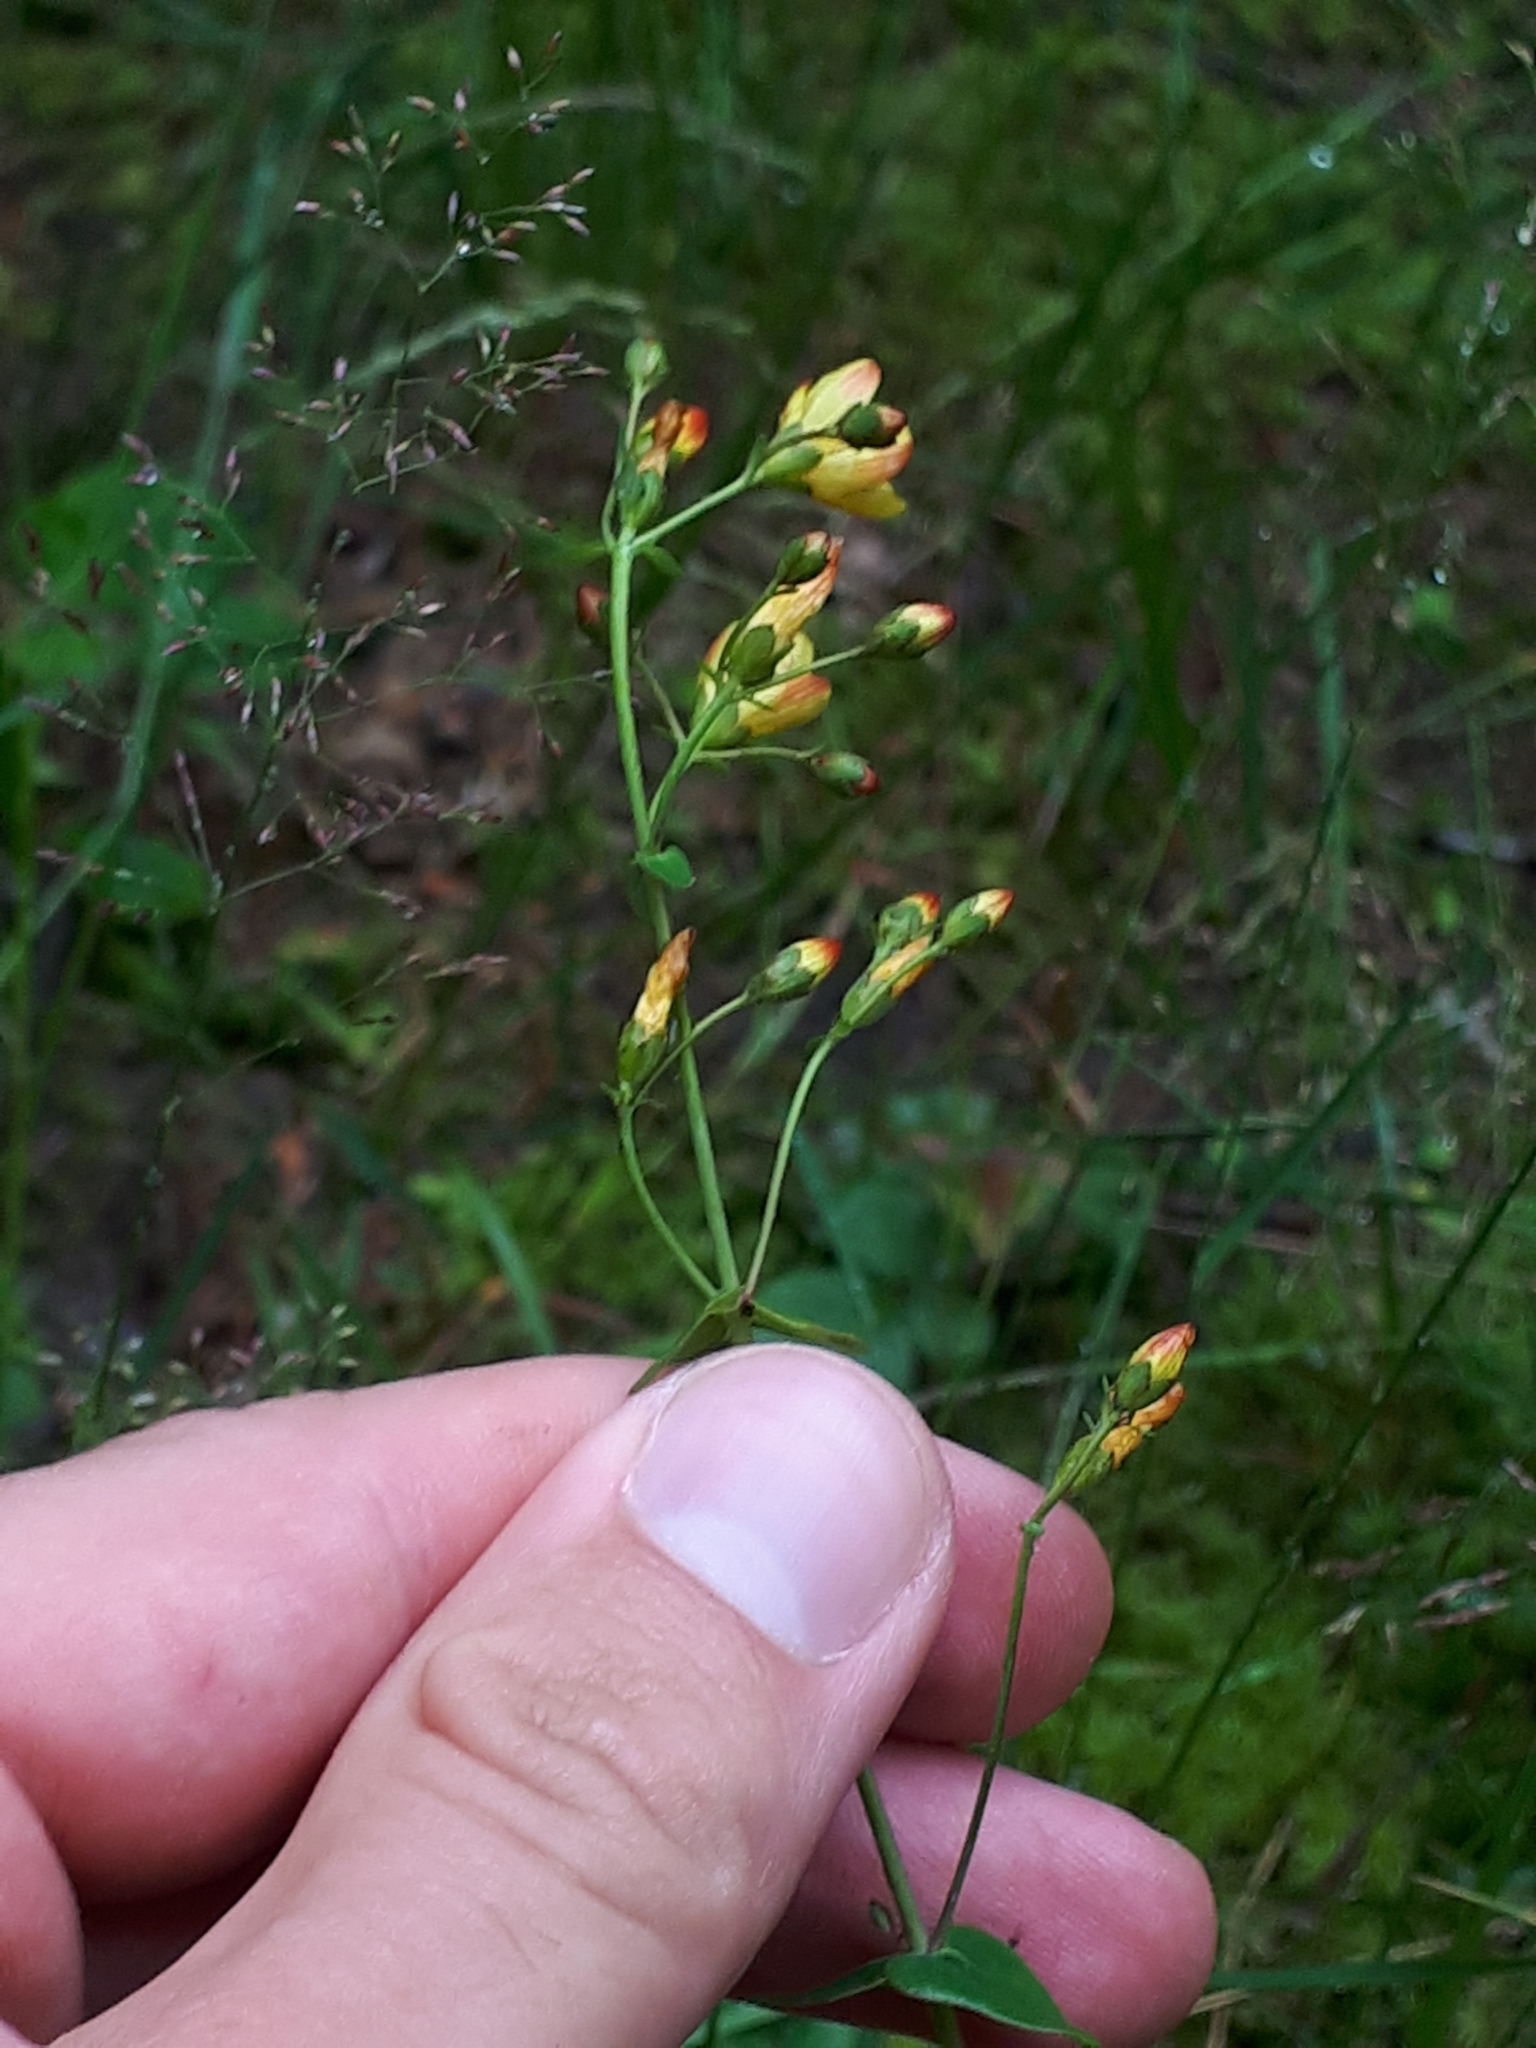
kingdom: Plantae
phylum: Tracheophyta
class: Magnoliopsida
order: Malpighiales
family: Hypericaceae
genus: Hypericum
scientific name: Hypericum pulchrum
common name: Slender st. john's-wort
